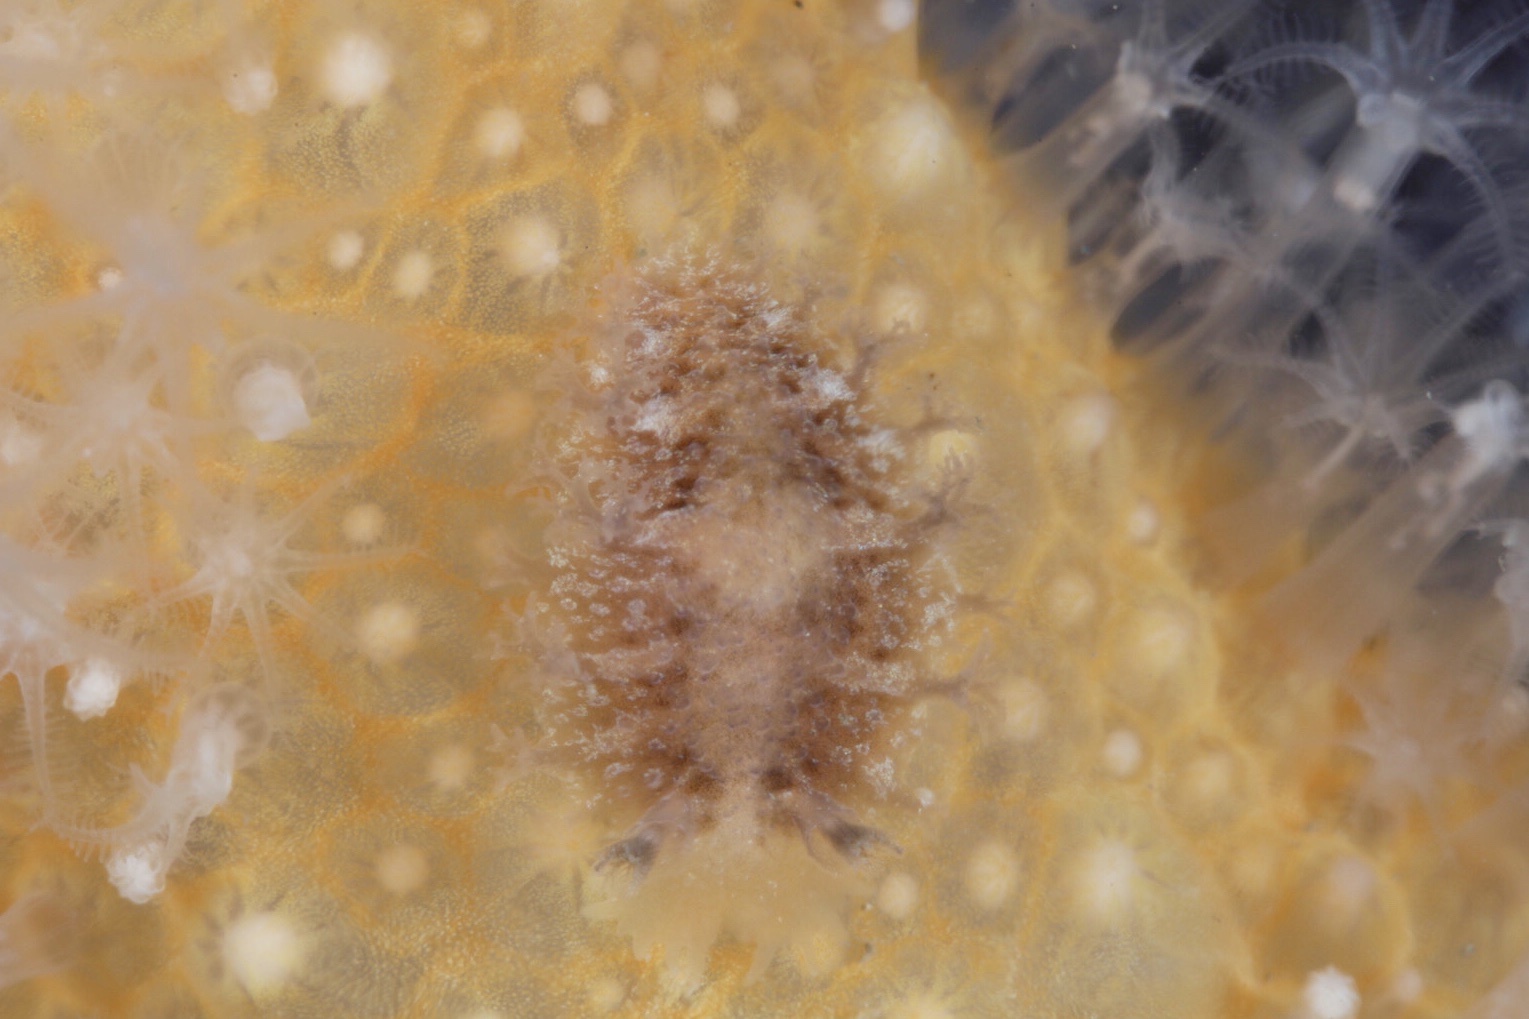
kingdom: Animalia
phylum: Mollusca
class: Gastropoda
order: Nudibranchia
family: Tritoniidae
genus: Tritonia
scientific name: Tritonia hombergii
